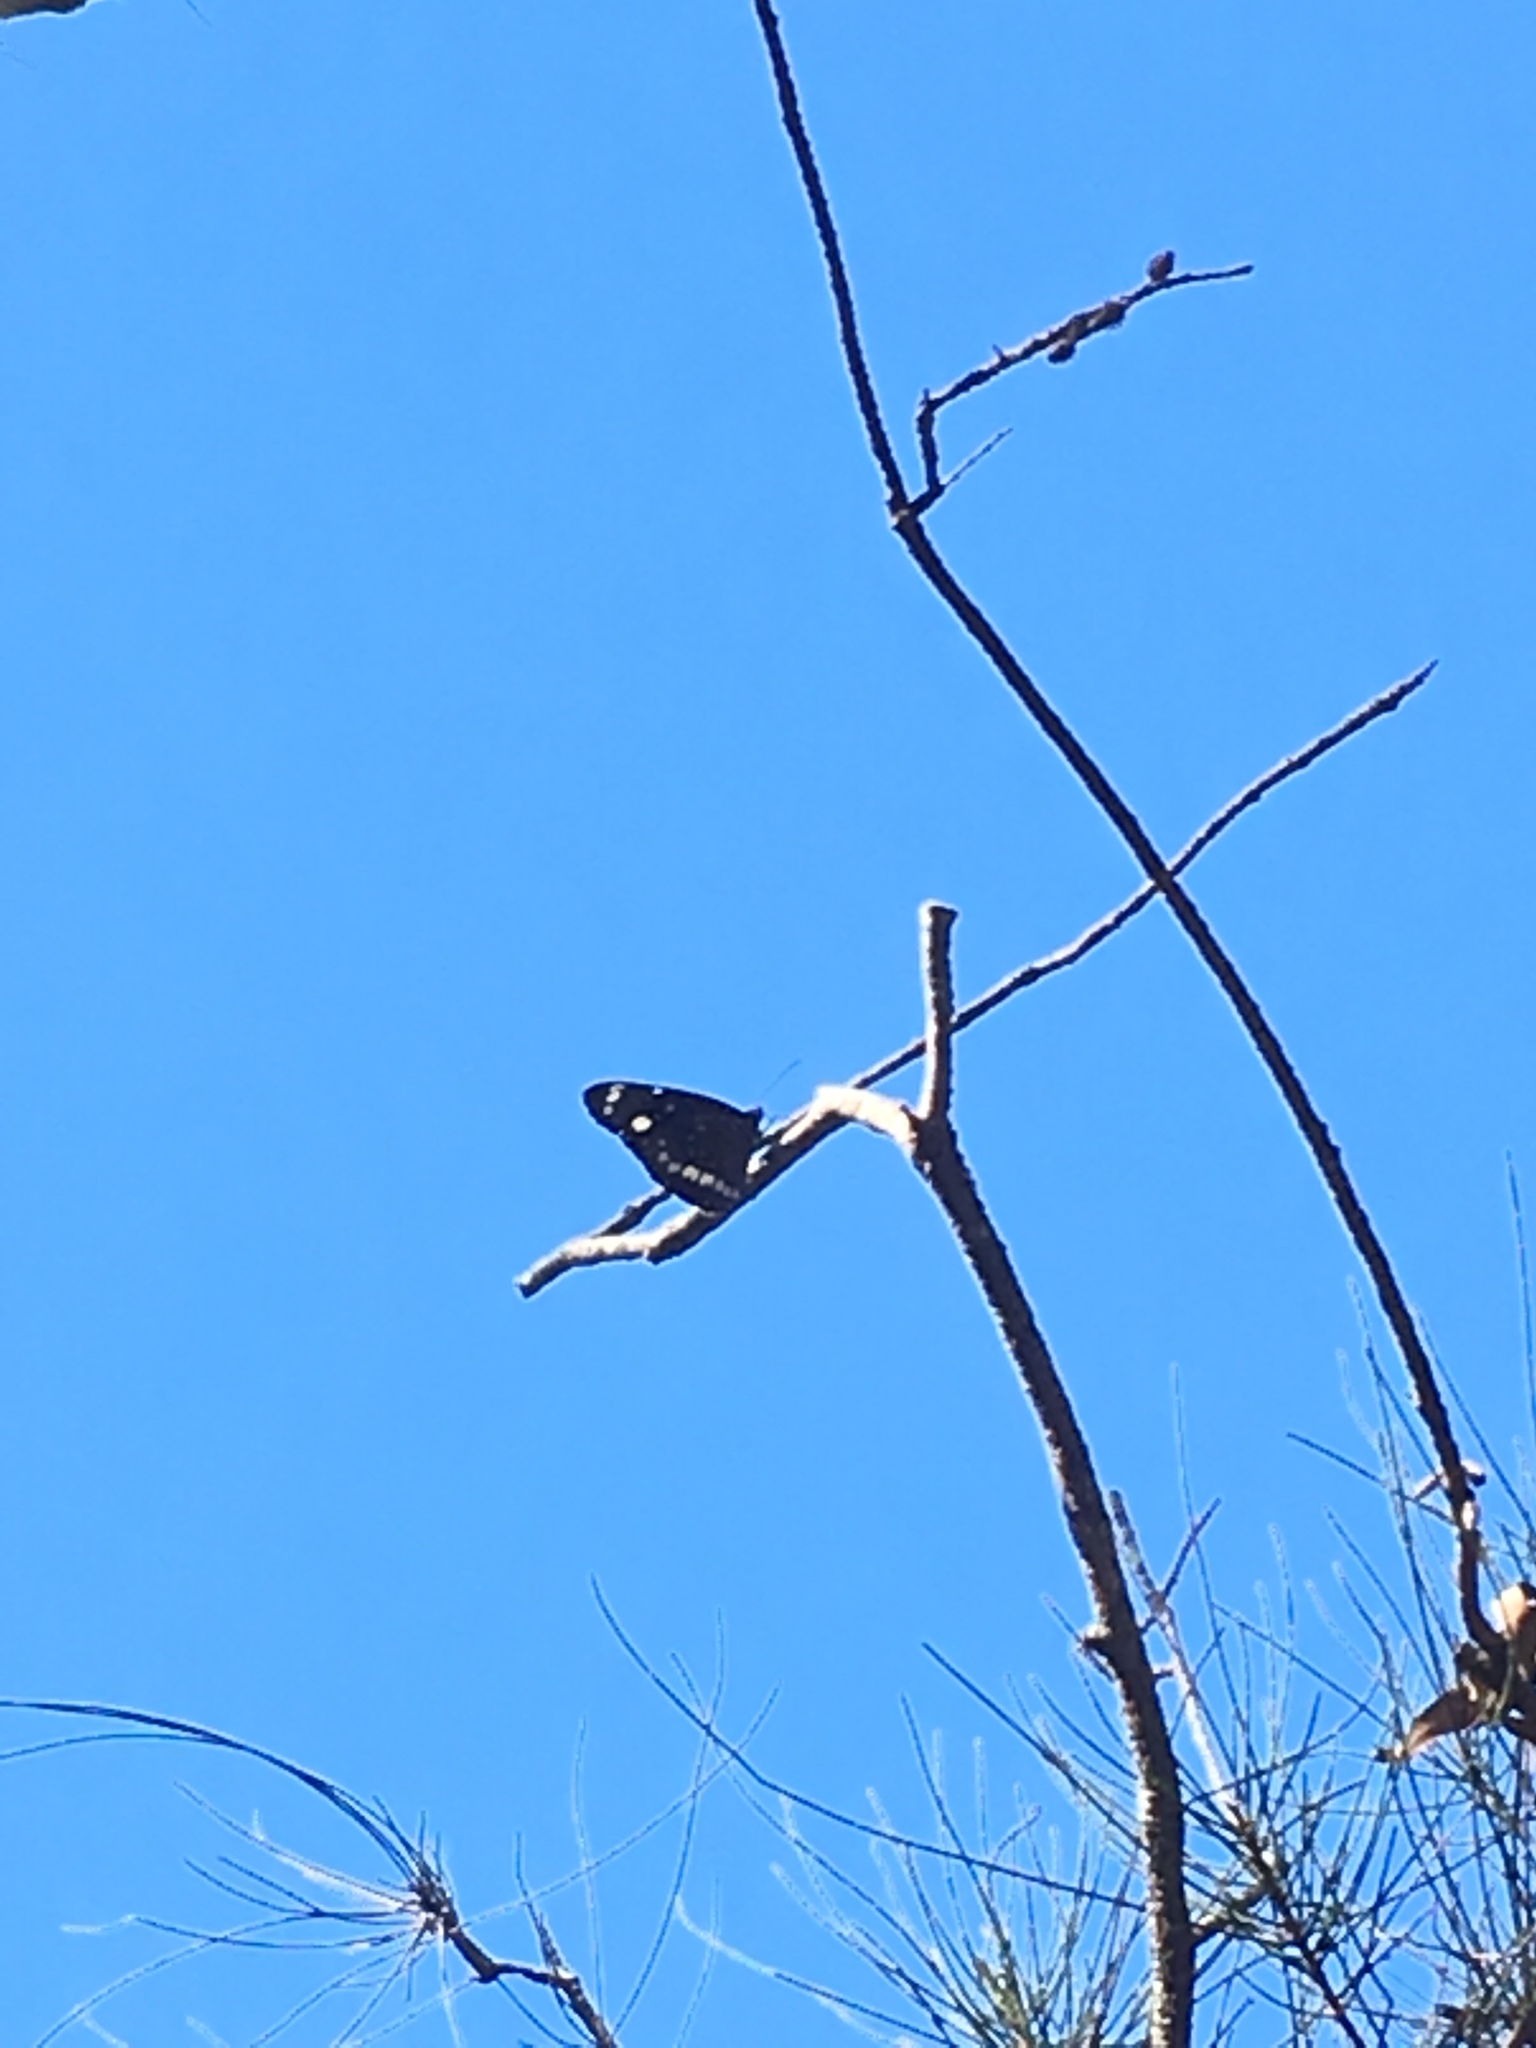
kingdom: Animalia
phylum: Arthropoda
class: Insecta
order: Lepidoptera
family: Nymphalidae
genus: Euploea
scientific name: Euploea core
